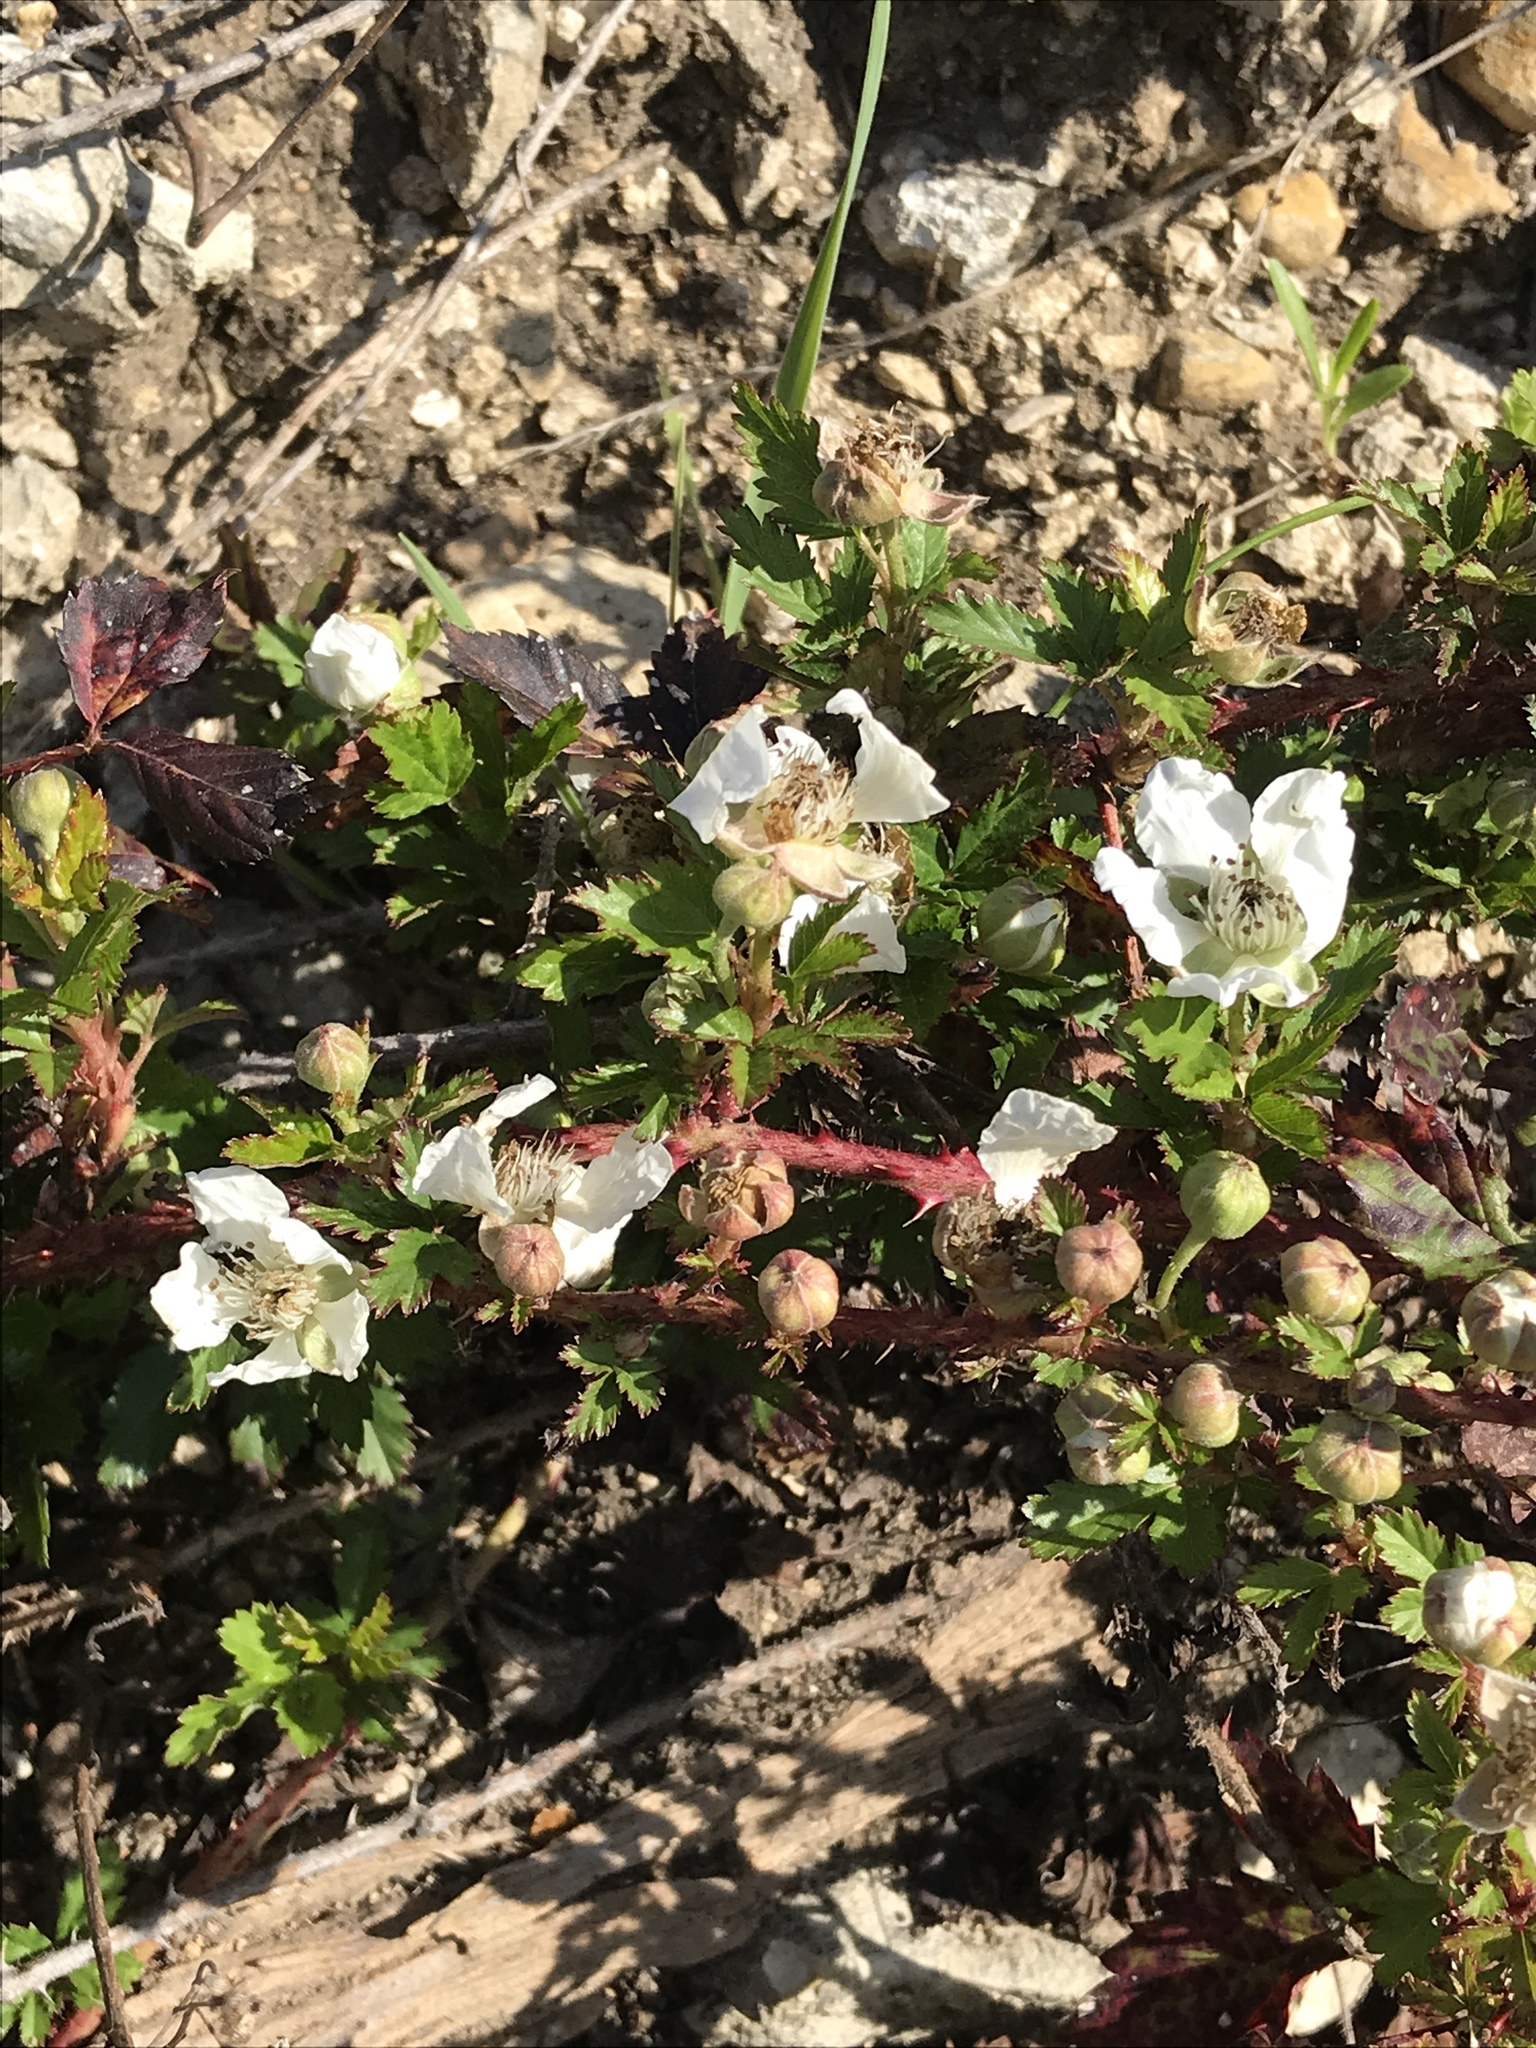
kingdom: Plantae
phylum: Tracheophyta
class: Magnoliopsida
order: Rosales
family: Rosaceae
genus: Rubus
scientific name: Rubus trivialis
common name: Southern dewberry
